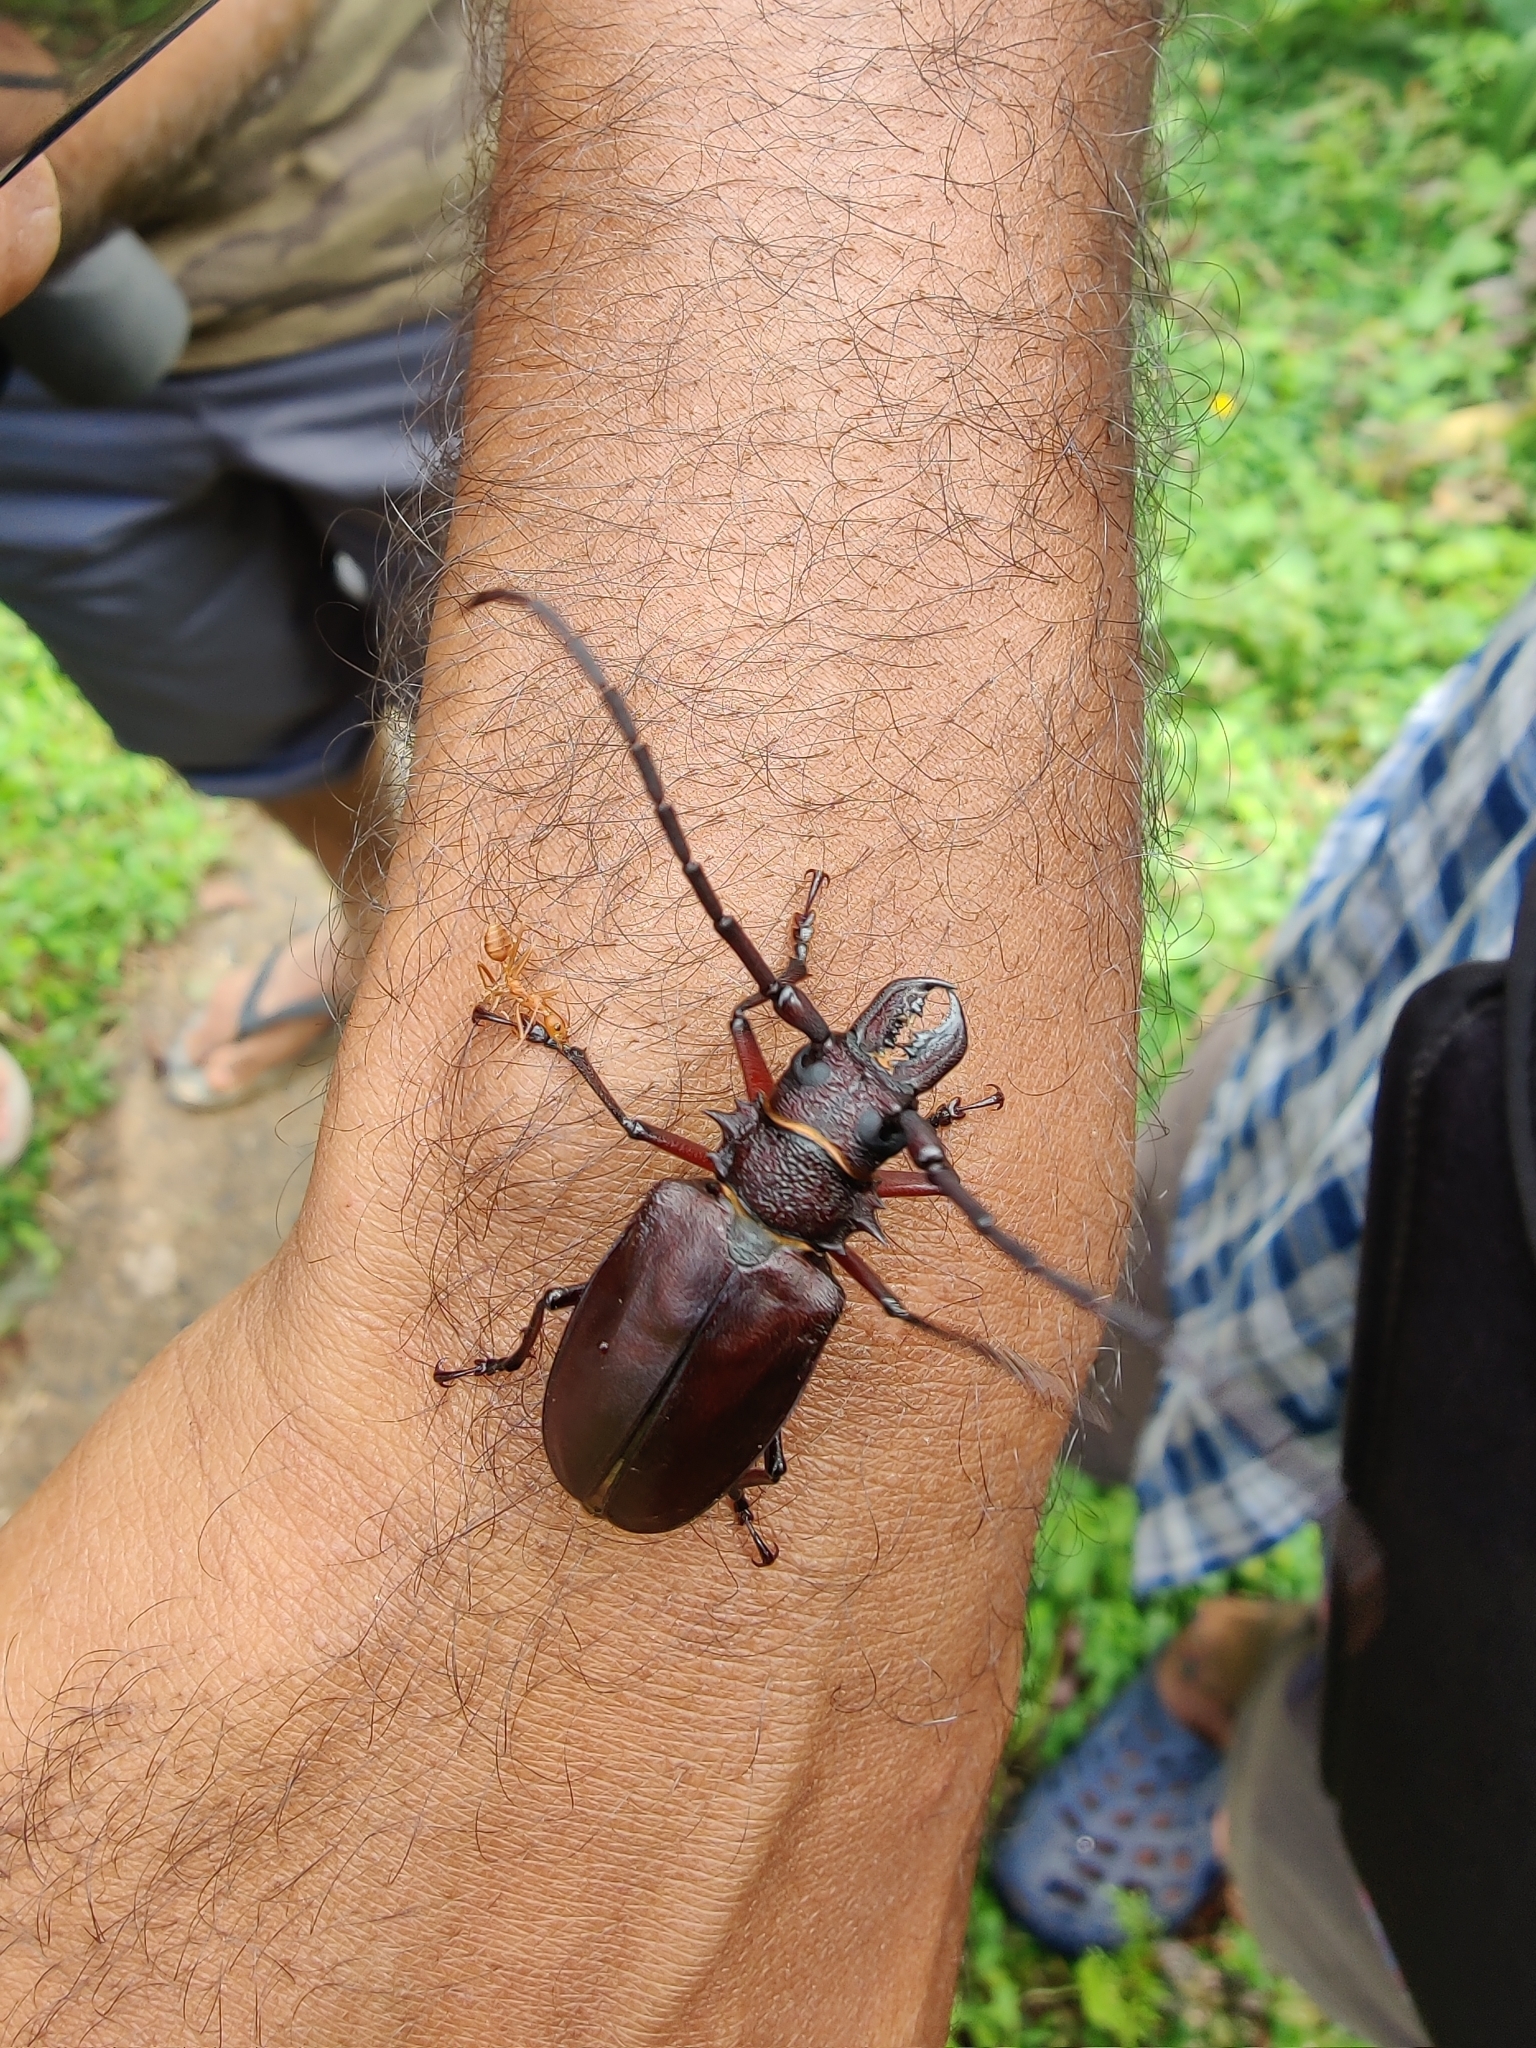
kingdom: Animalia
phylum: Arthropoda
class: Insecta
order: Coleoptera
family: Cerambycidae
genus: Priotyrannus
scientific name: Priotyrannus mordax
